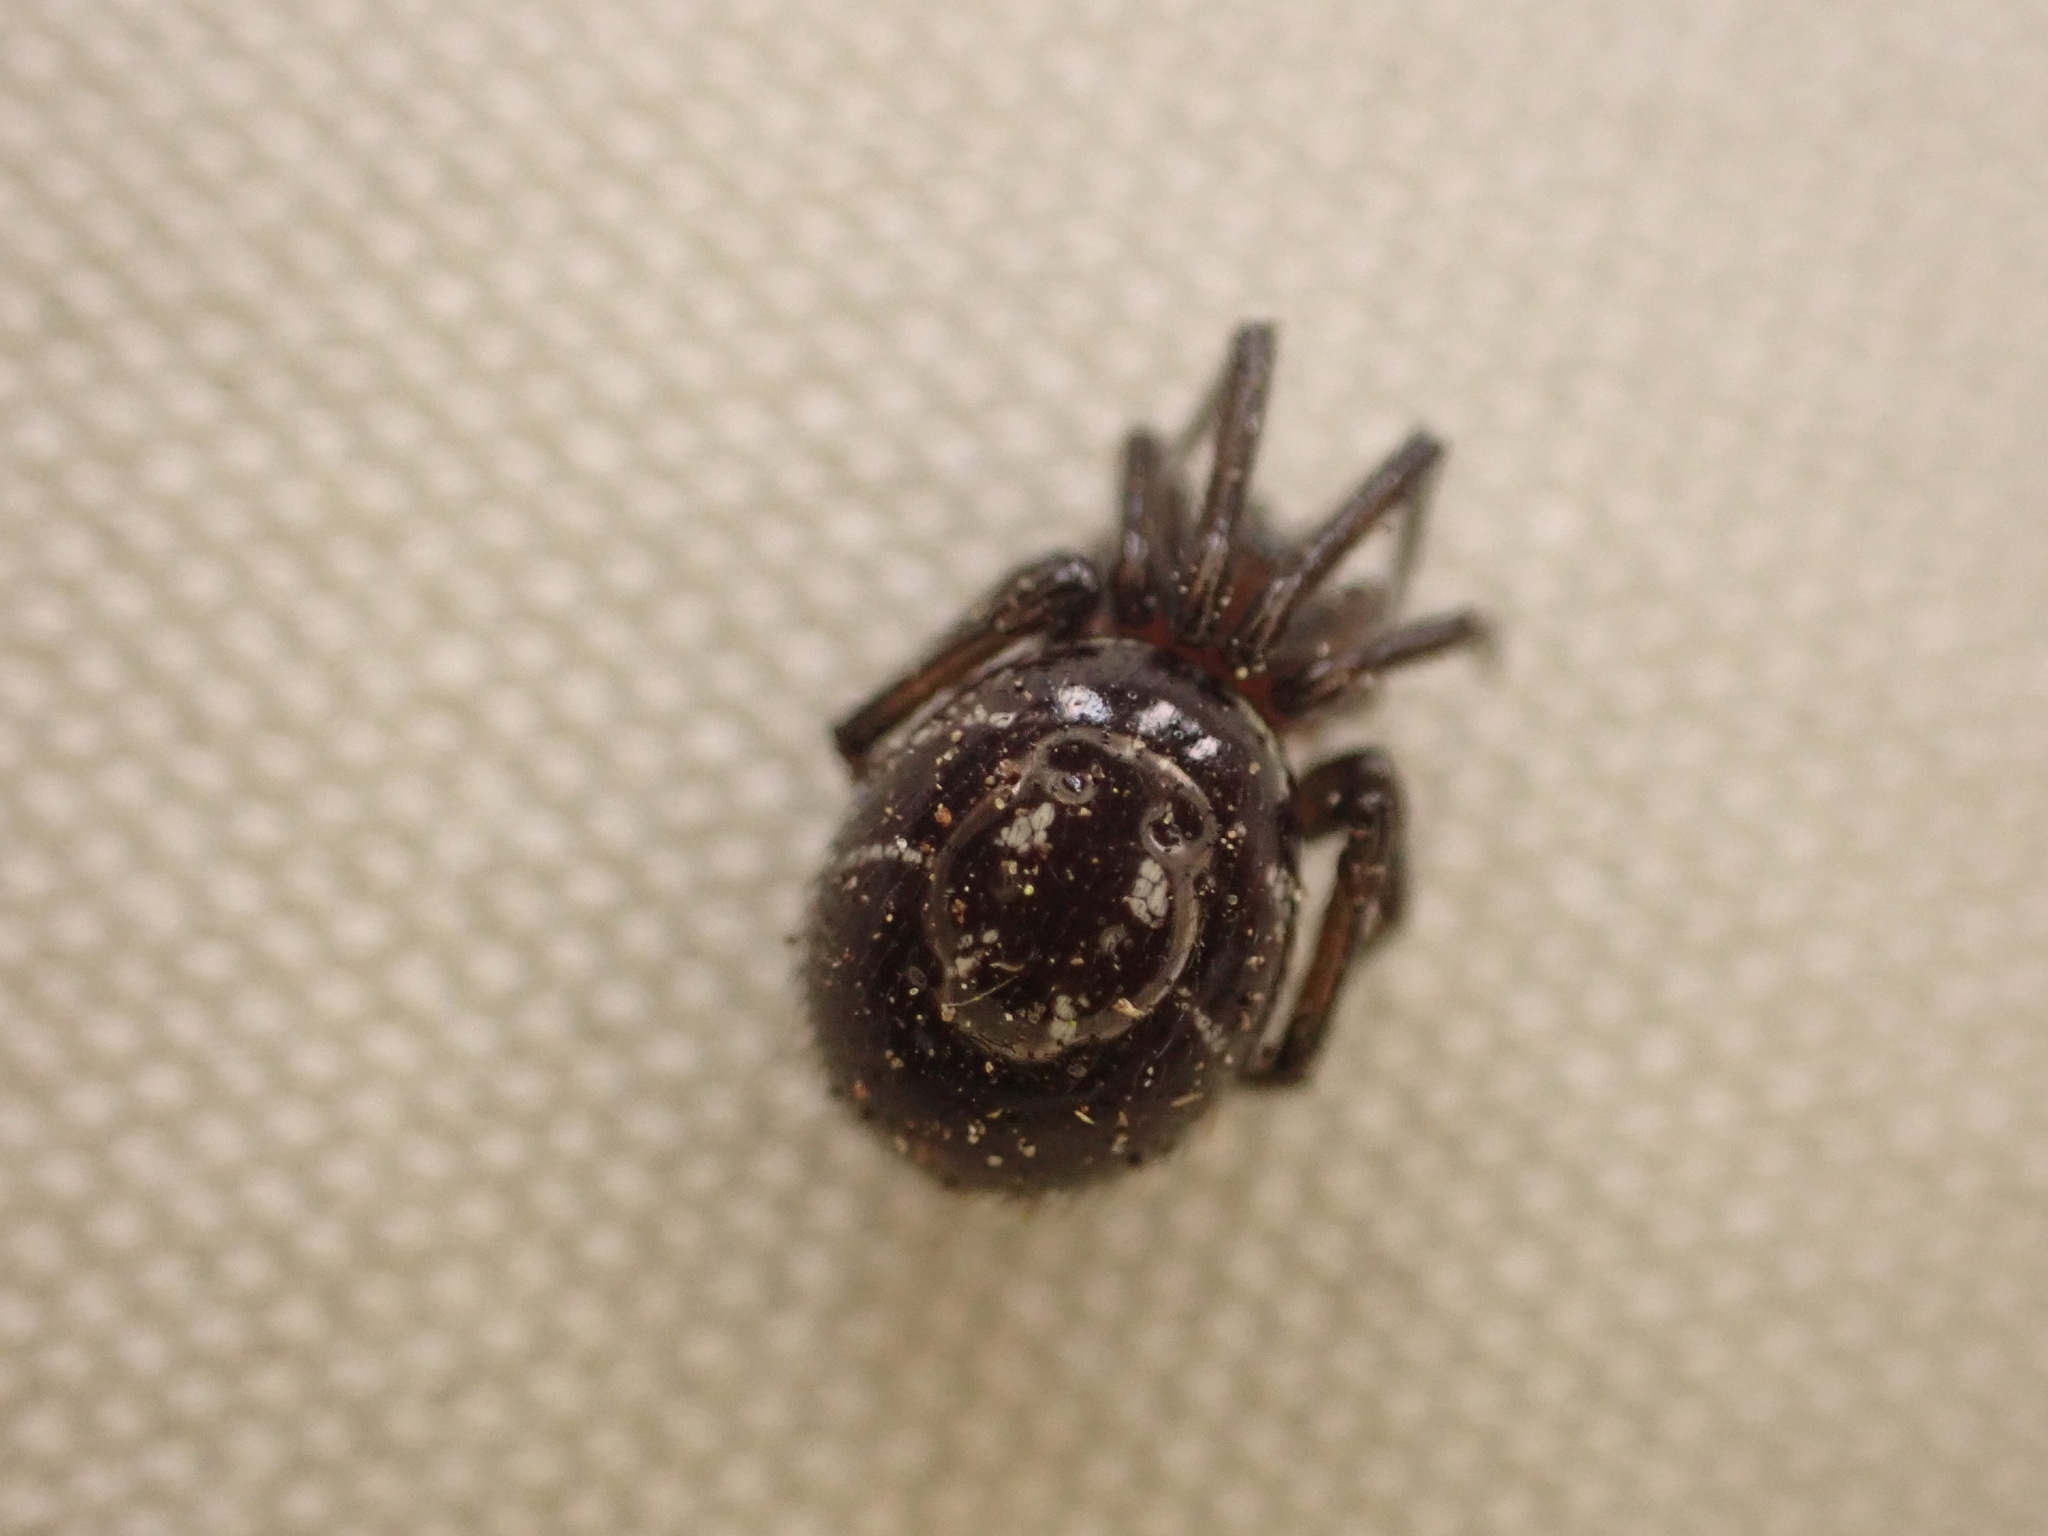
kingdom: Animalia
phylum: Arthropoda
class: Arachnida
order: Araneae
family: Theridiidae
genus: Steatoda
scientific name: Steatoda capensis
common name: Cobweb weaver
